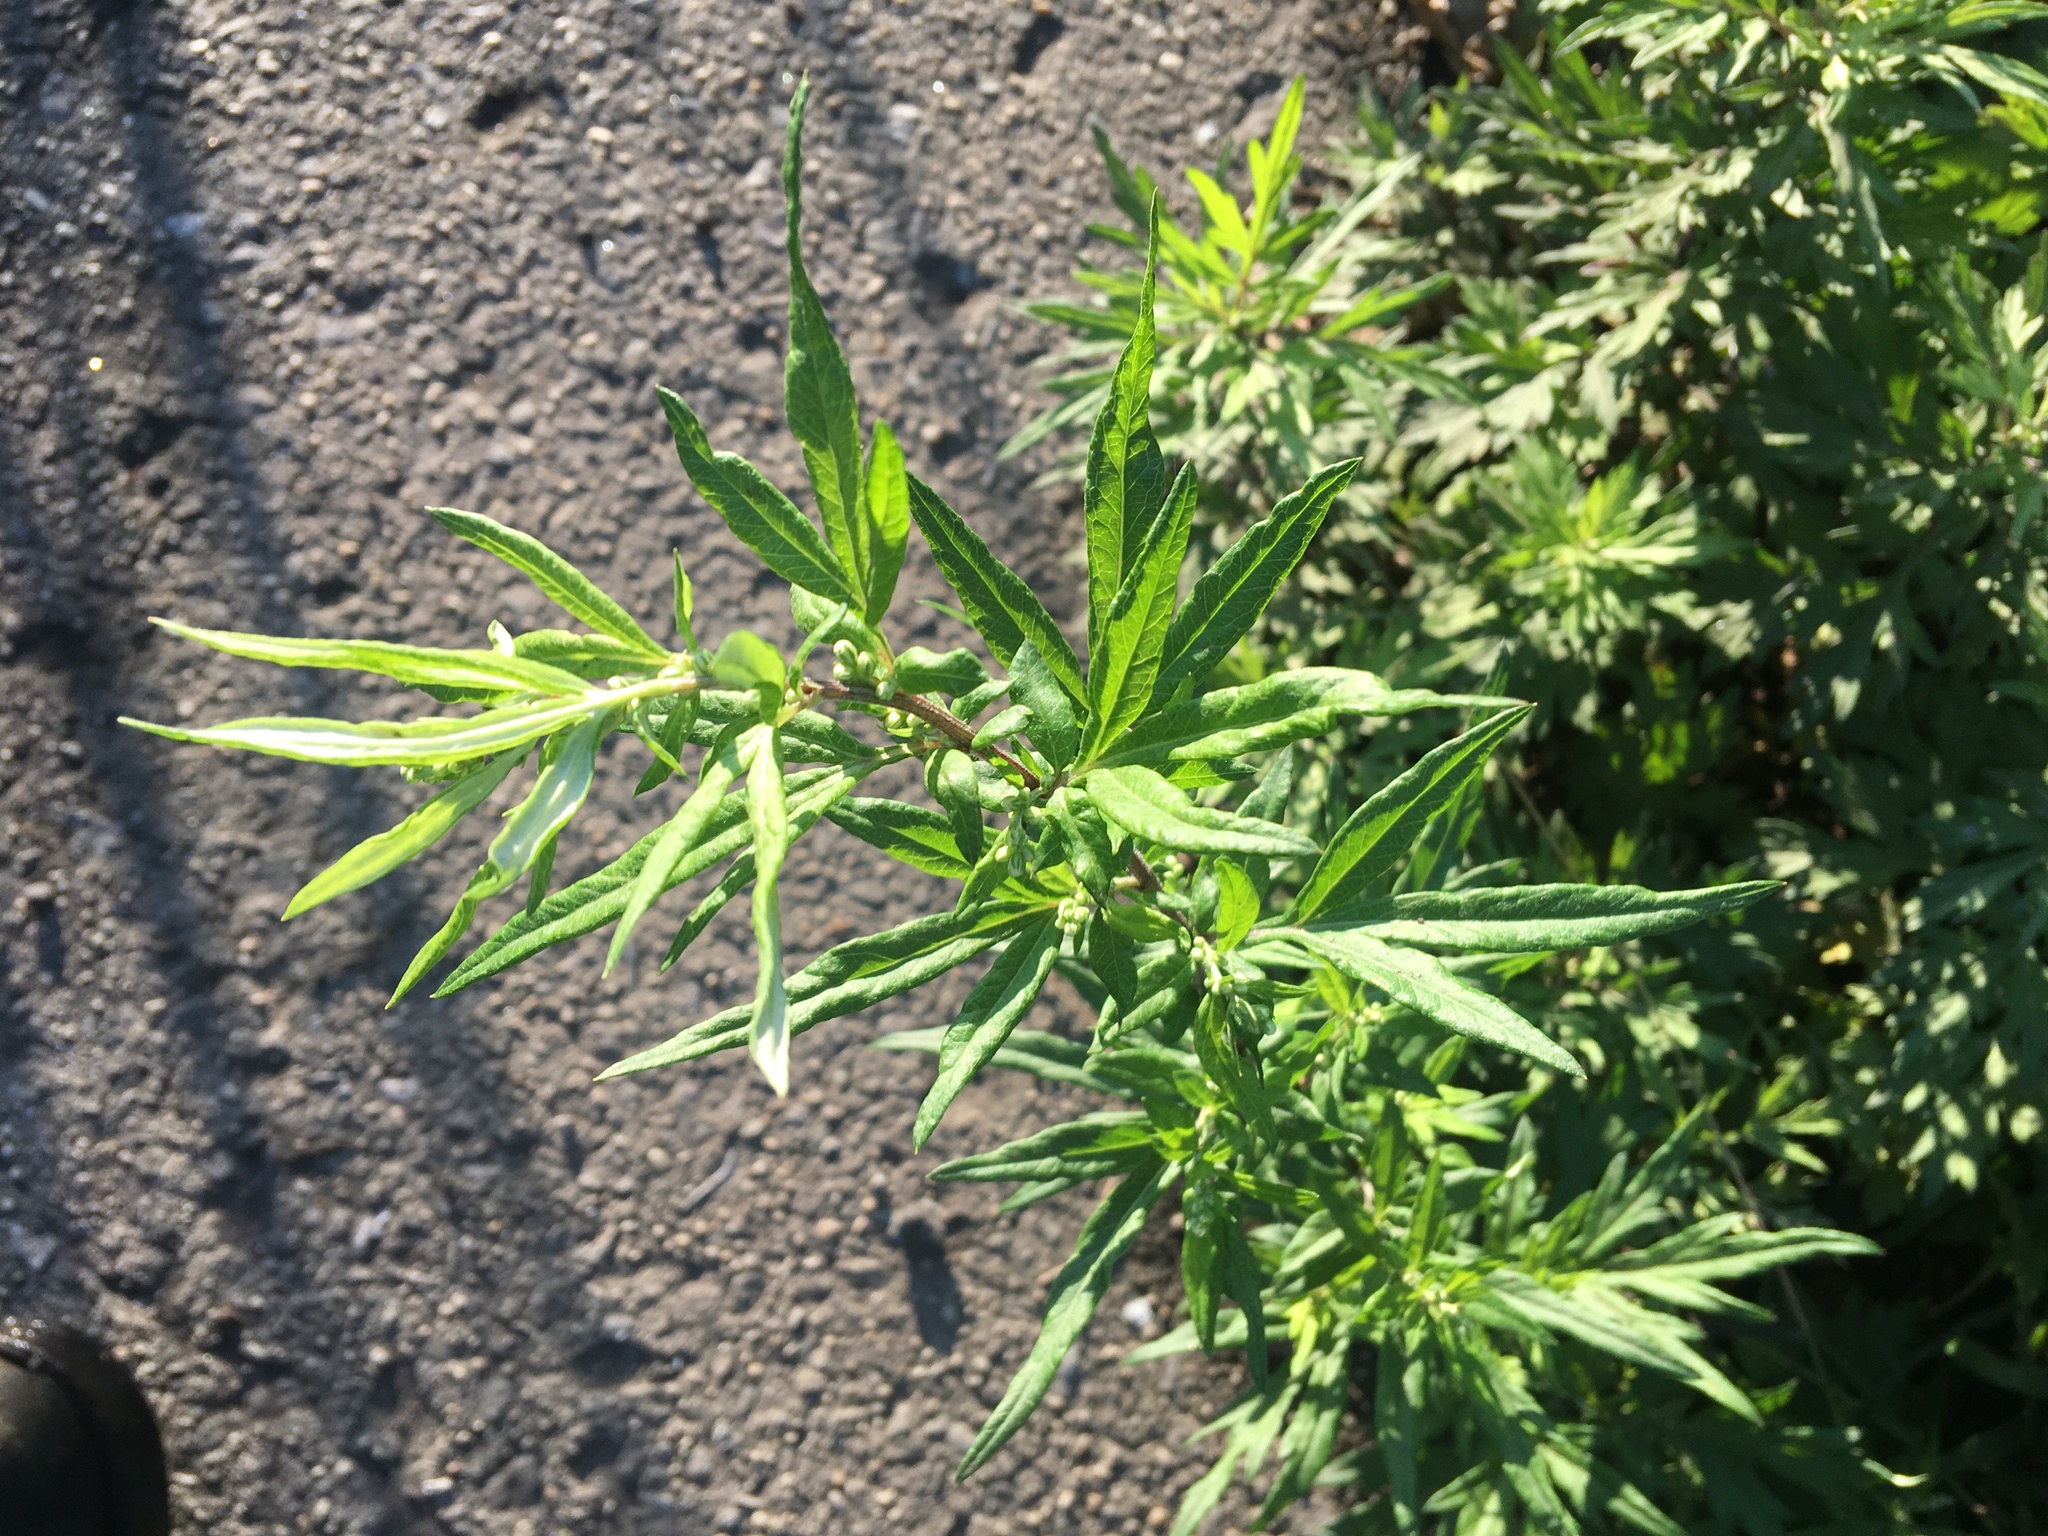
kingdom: Plantae
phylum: Tracheophyta
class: Magnoliopsida
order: Asterales
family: Asteraceae
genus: Artemisia
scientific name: Artemisia vulgaris
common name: Mugwort
